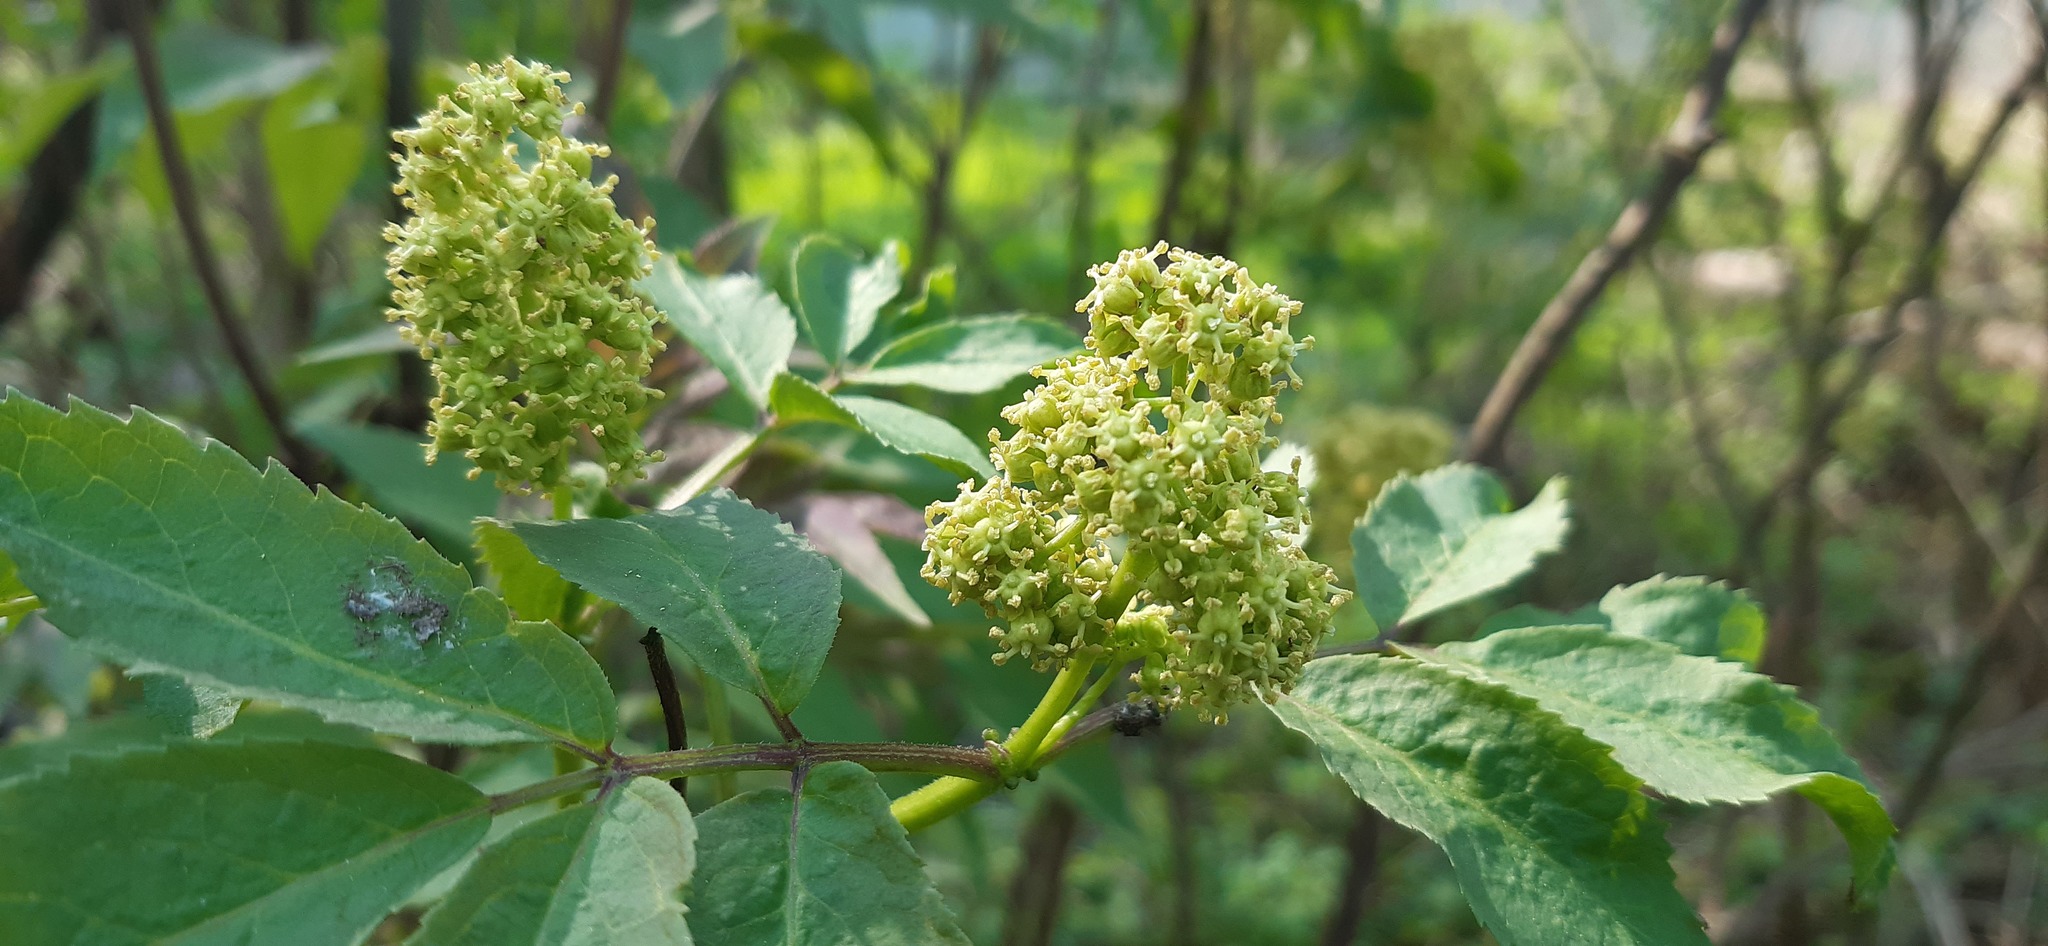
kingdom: Plantae
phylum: Tracheophyta
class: Magnoliopsida
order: Dipsacales
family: Viburnaceae
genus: Sambucus
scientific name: Sambucus racemosa
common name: Red-berried elder
